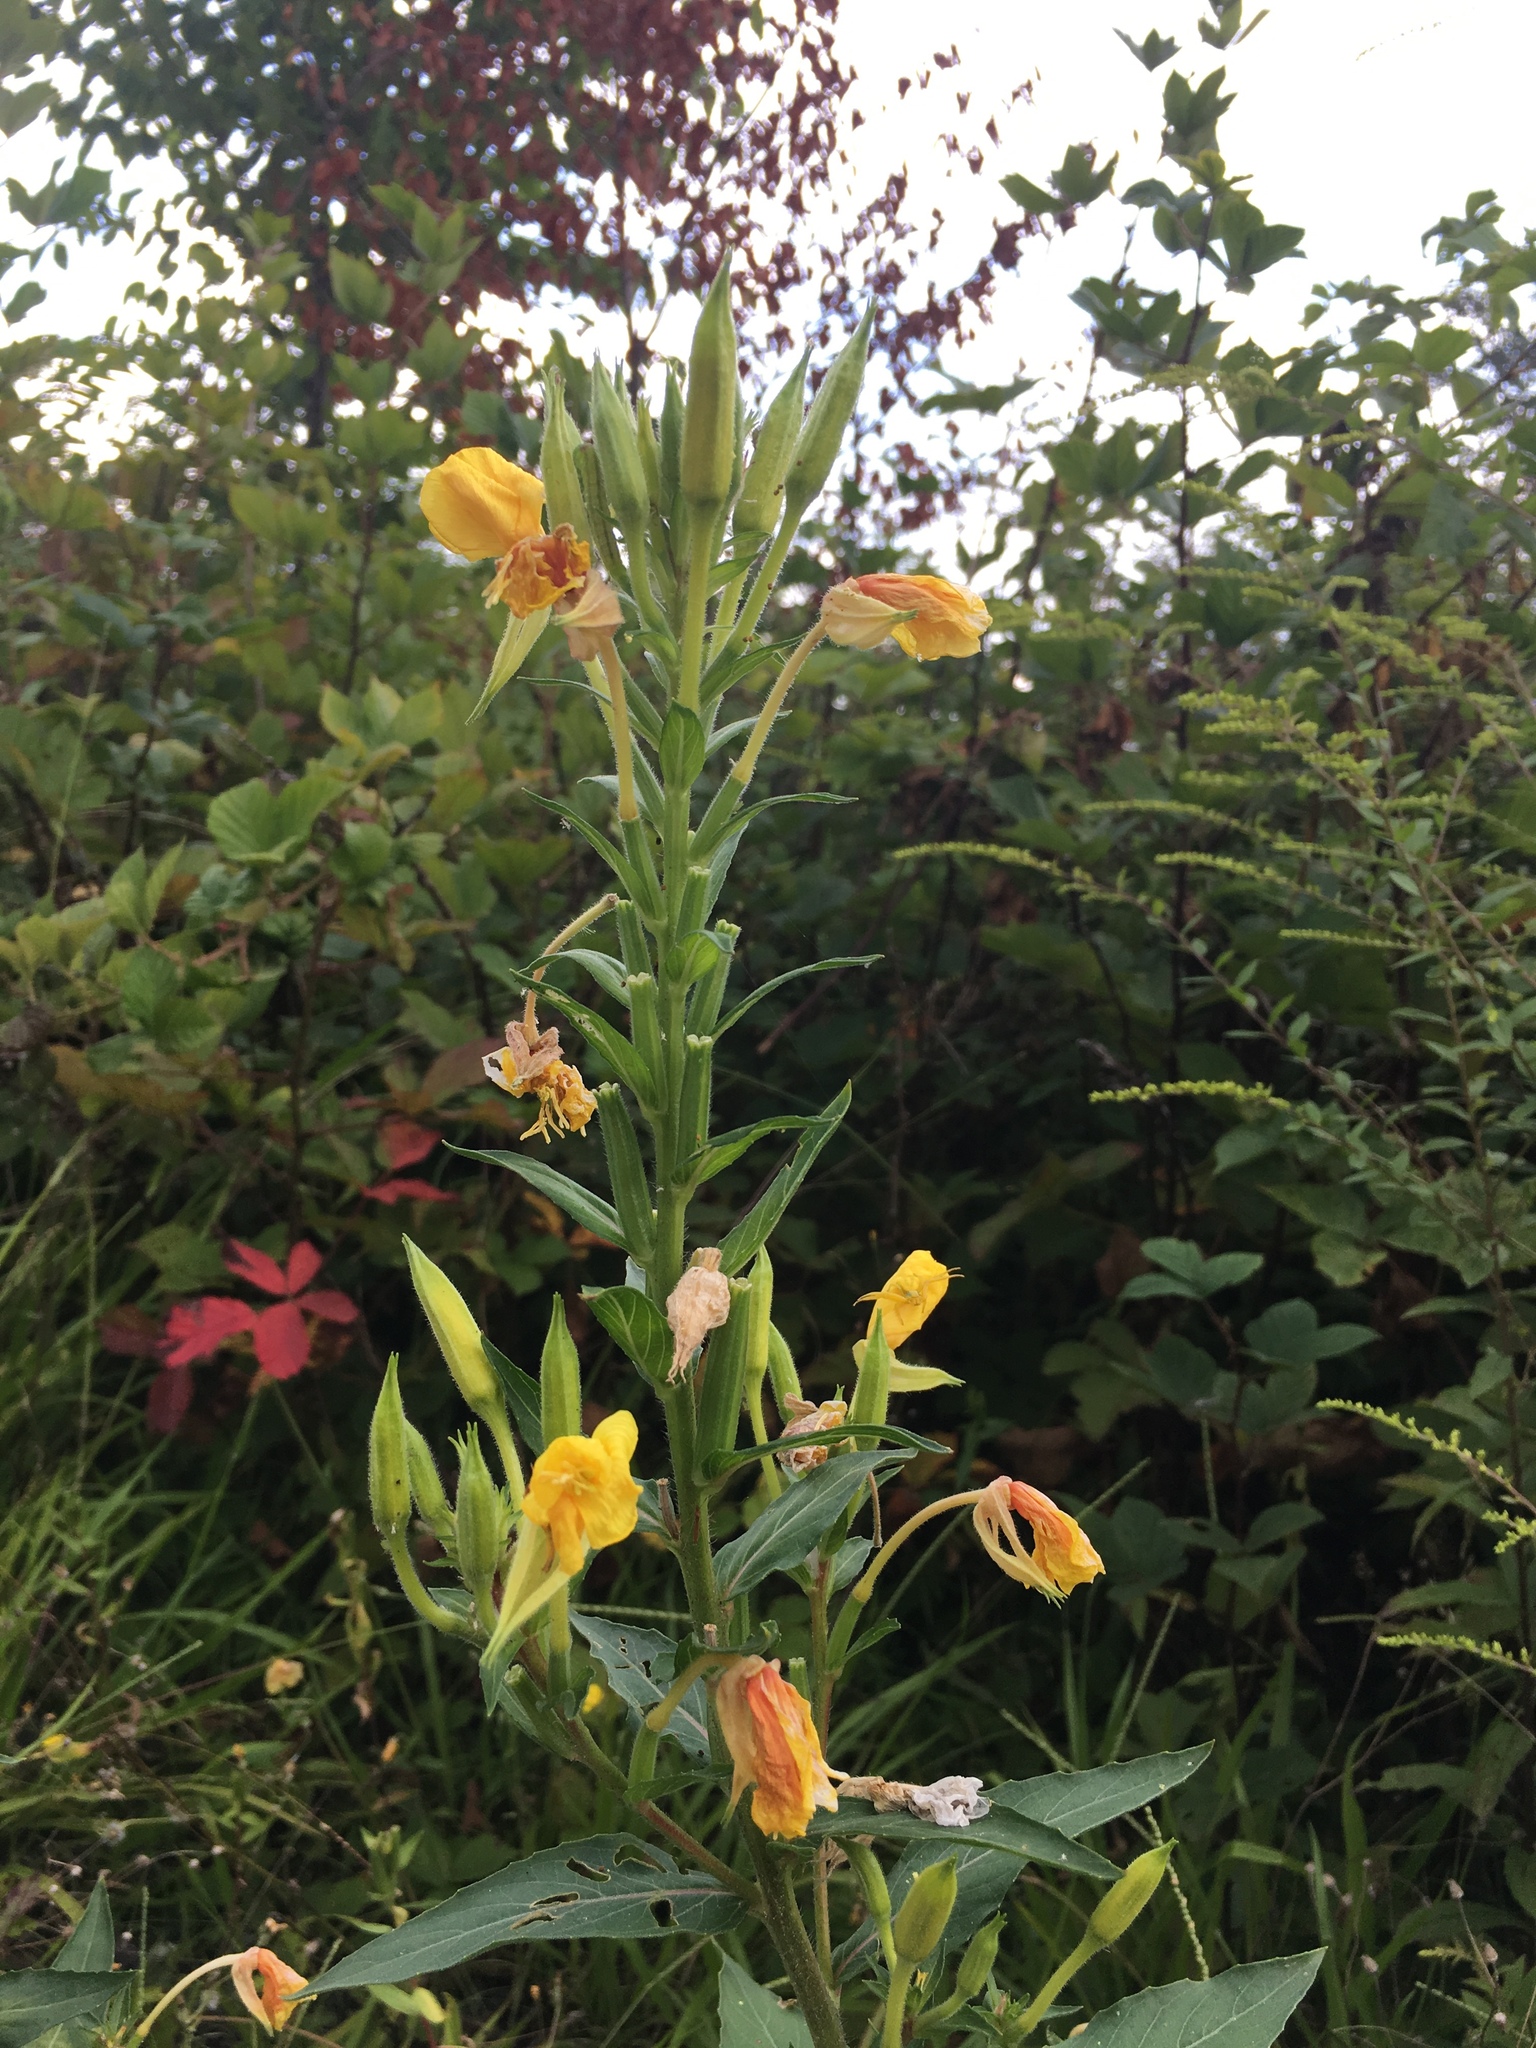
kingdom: Plantae
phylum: Tracheophyta
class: Magnoliopsida
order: Myrtales
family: Onagraceae
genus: Oenothera
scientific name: Oenothera biennis
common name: Common evening-primrose
